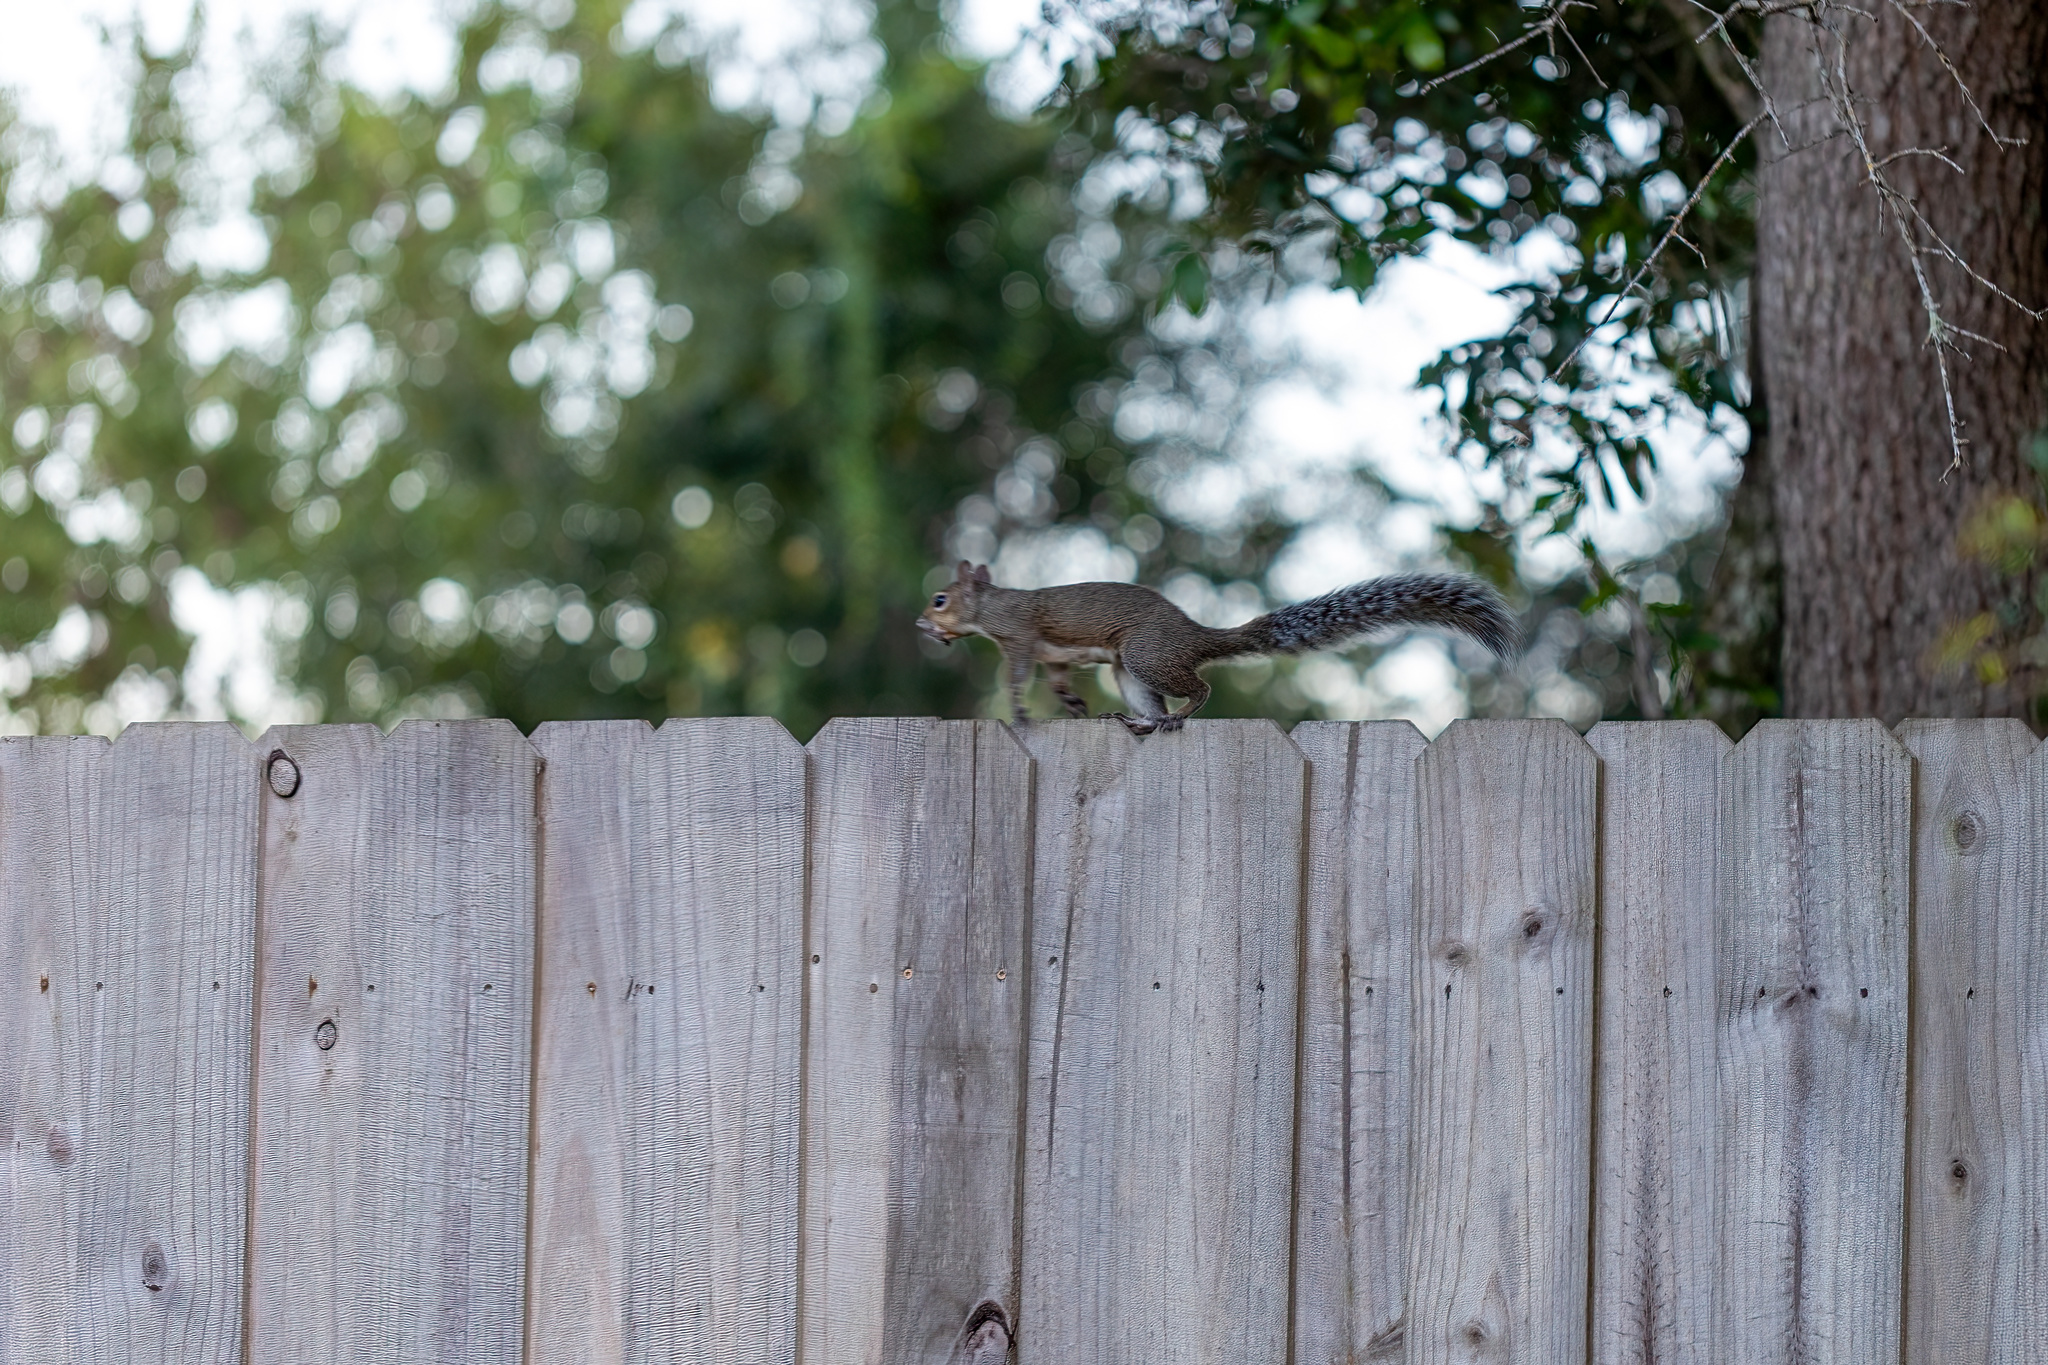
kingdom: Animalia
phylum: Chordata
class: Mammalia
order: Rodentia
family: Sciuridae
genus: Sciurus
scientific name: Sciurus carolinensis
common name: Eastern gray squirrel
